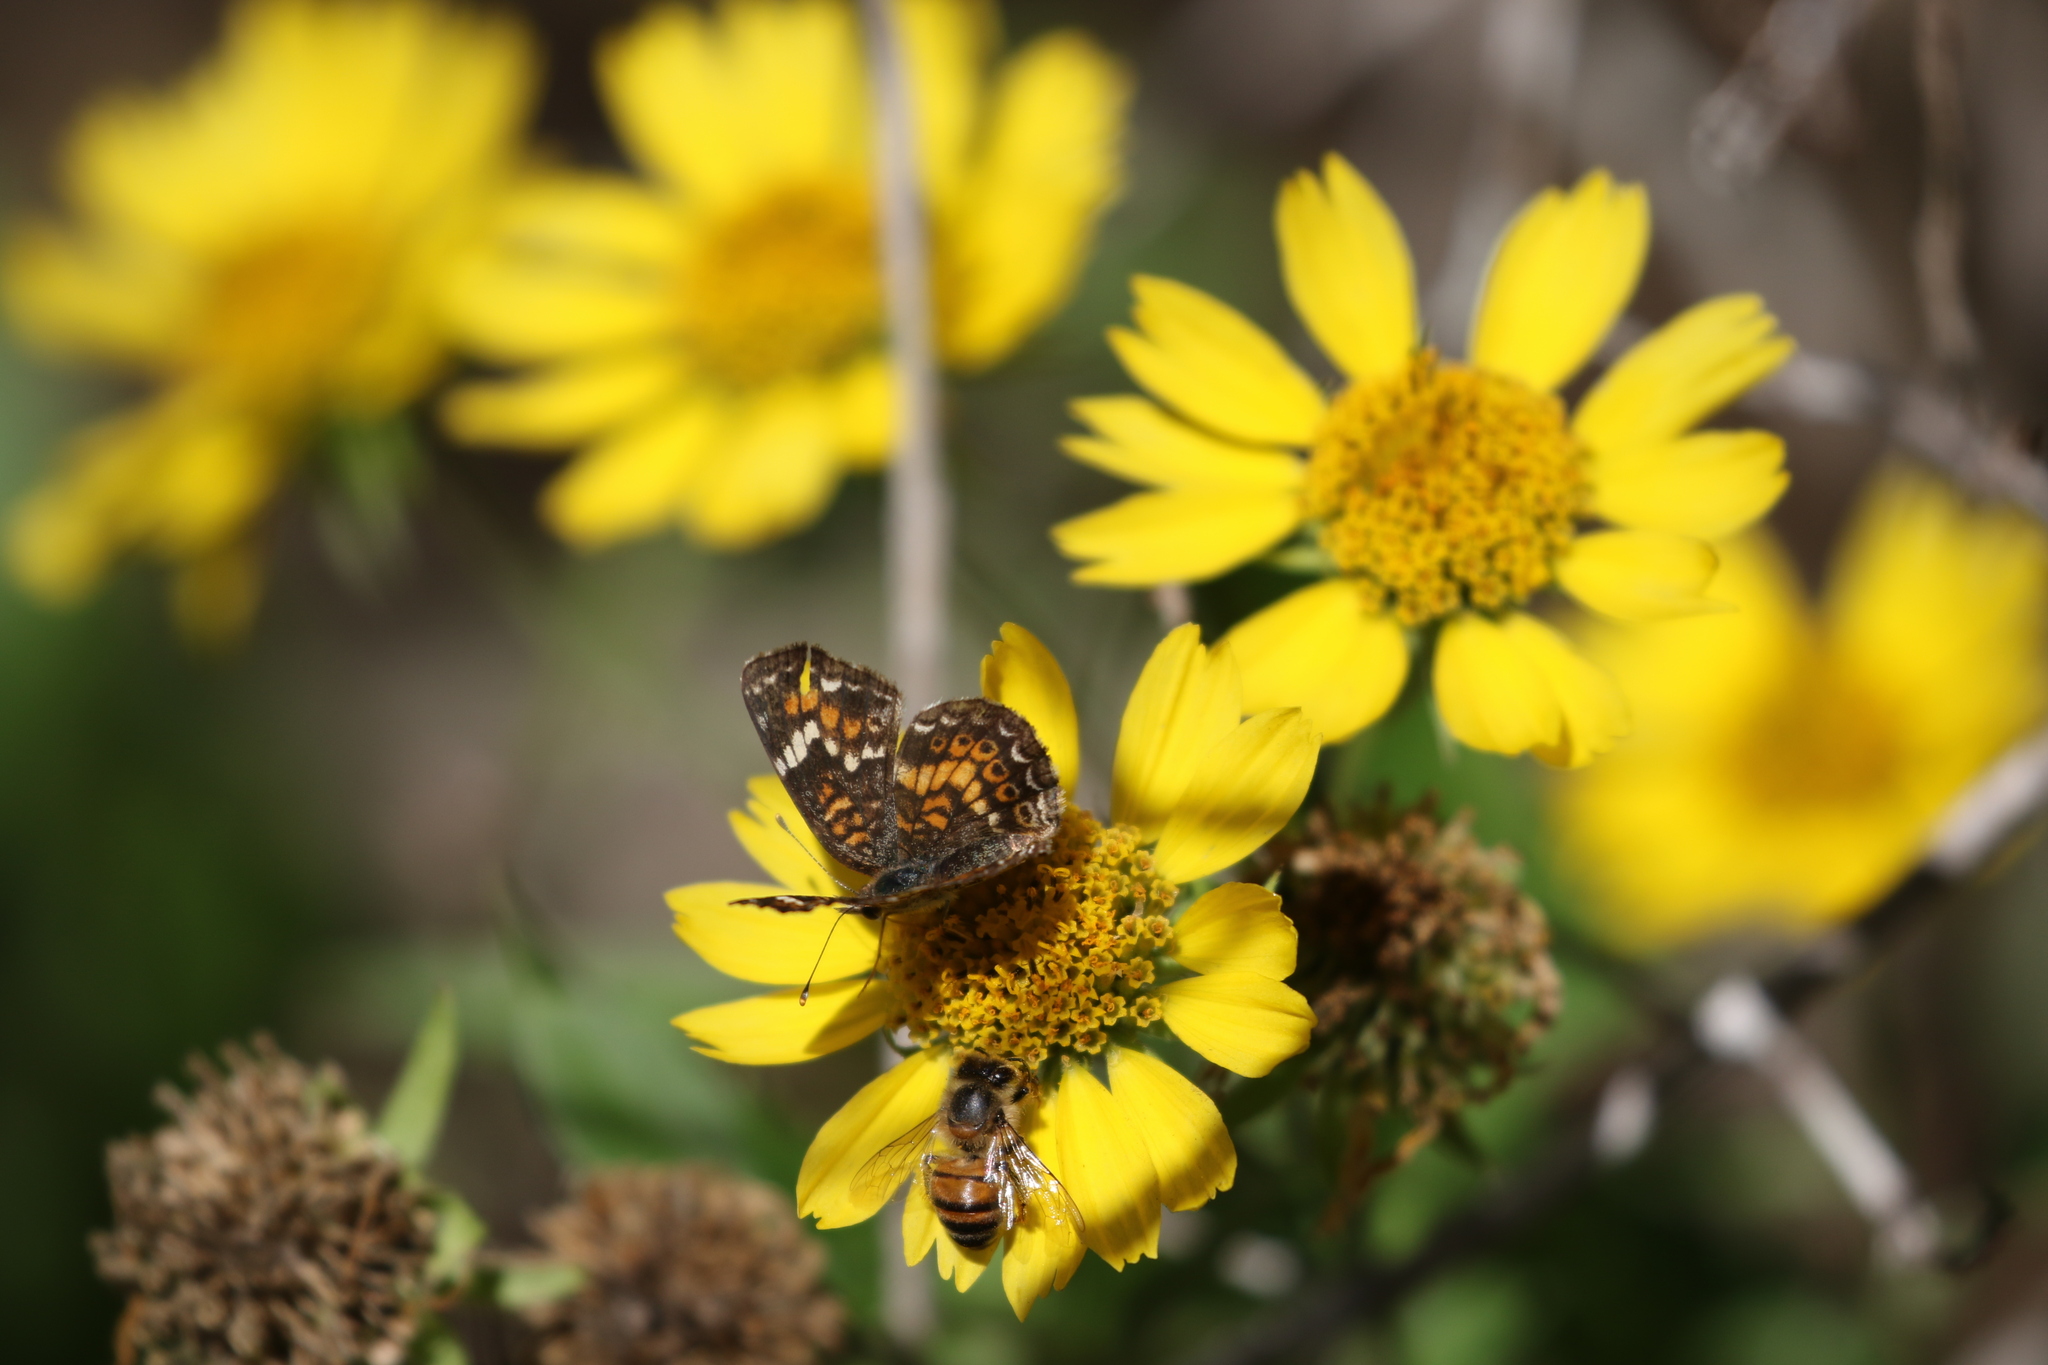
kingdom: Animalia
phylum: Arthropoda
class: Insecta
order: Lepidoptera
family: Nymphalidae
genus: Phyciodes
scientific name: Phyciodes phaon
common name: Phaon crescent
